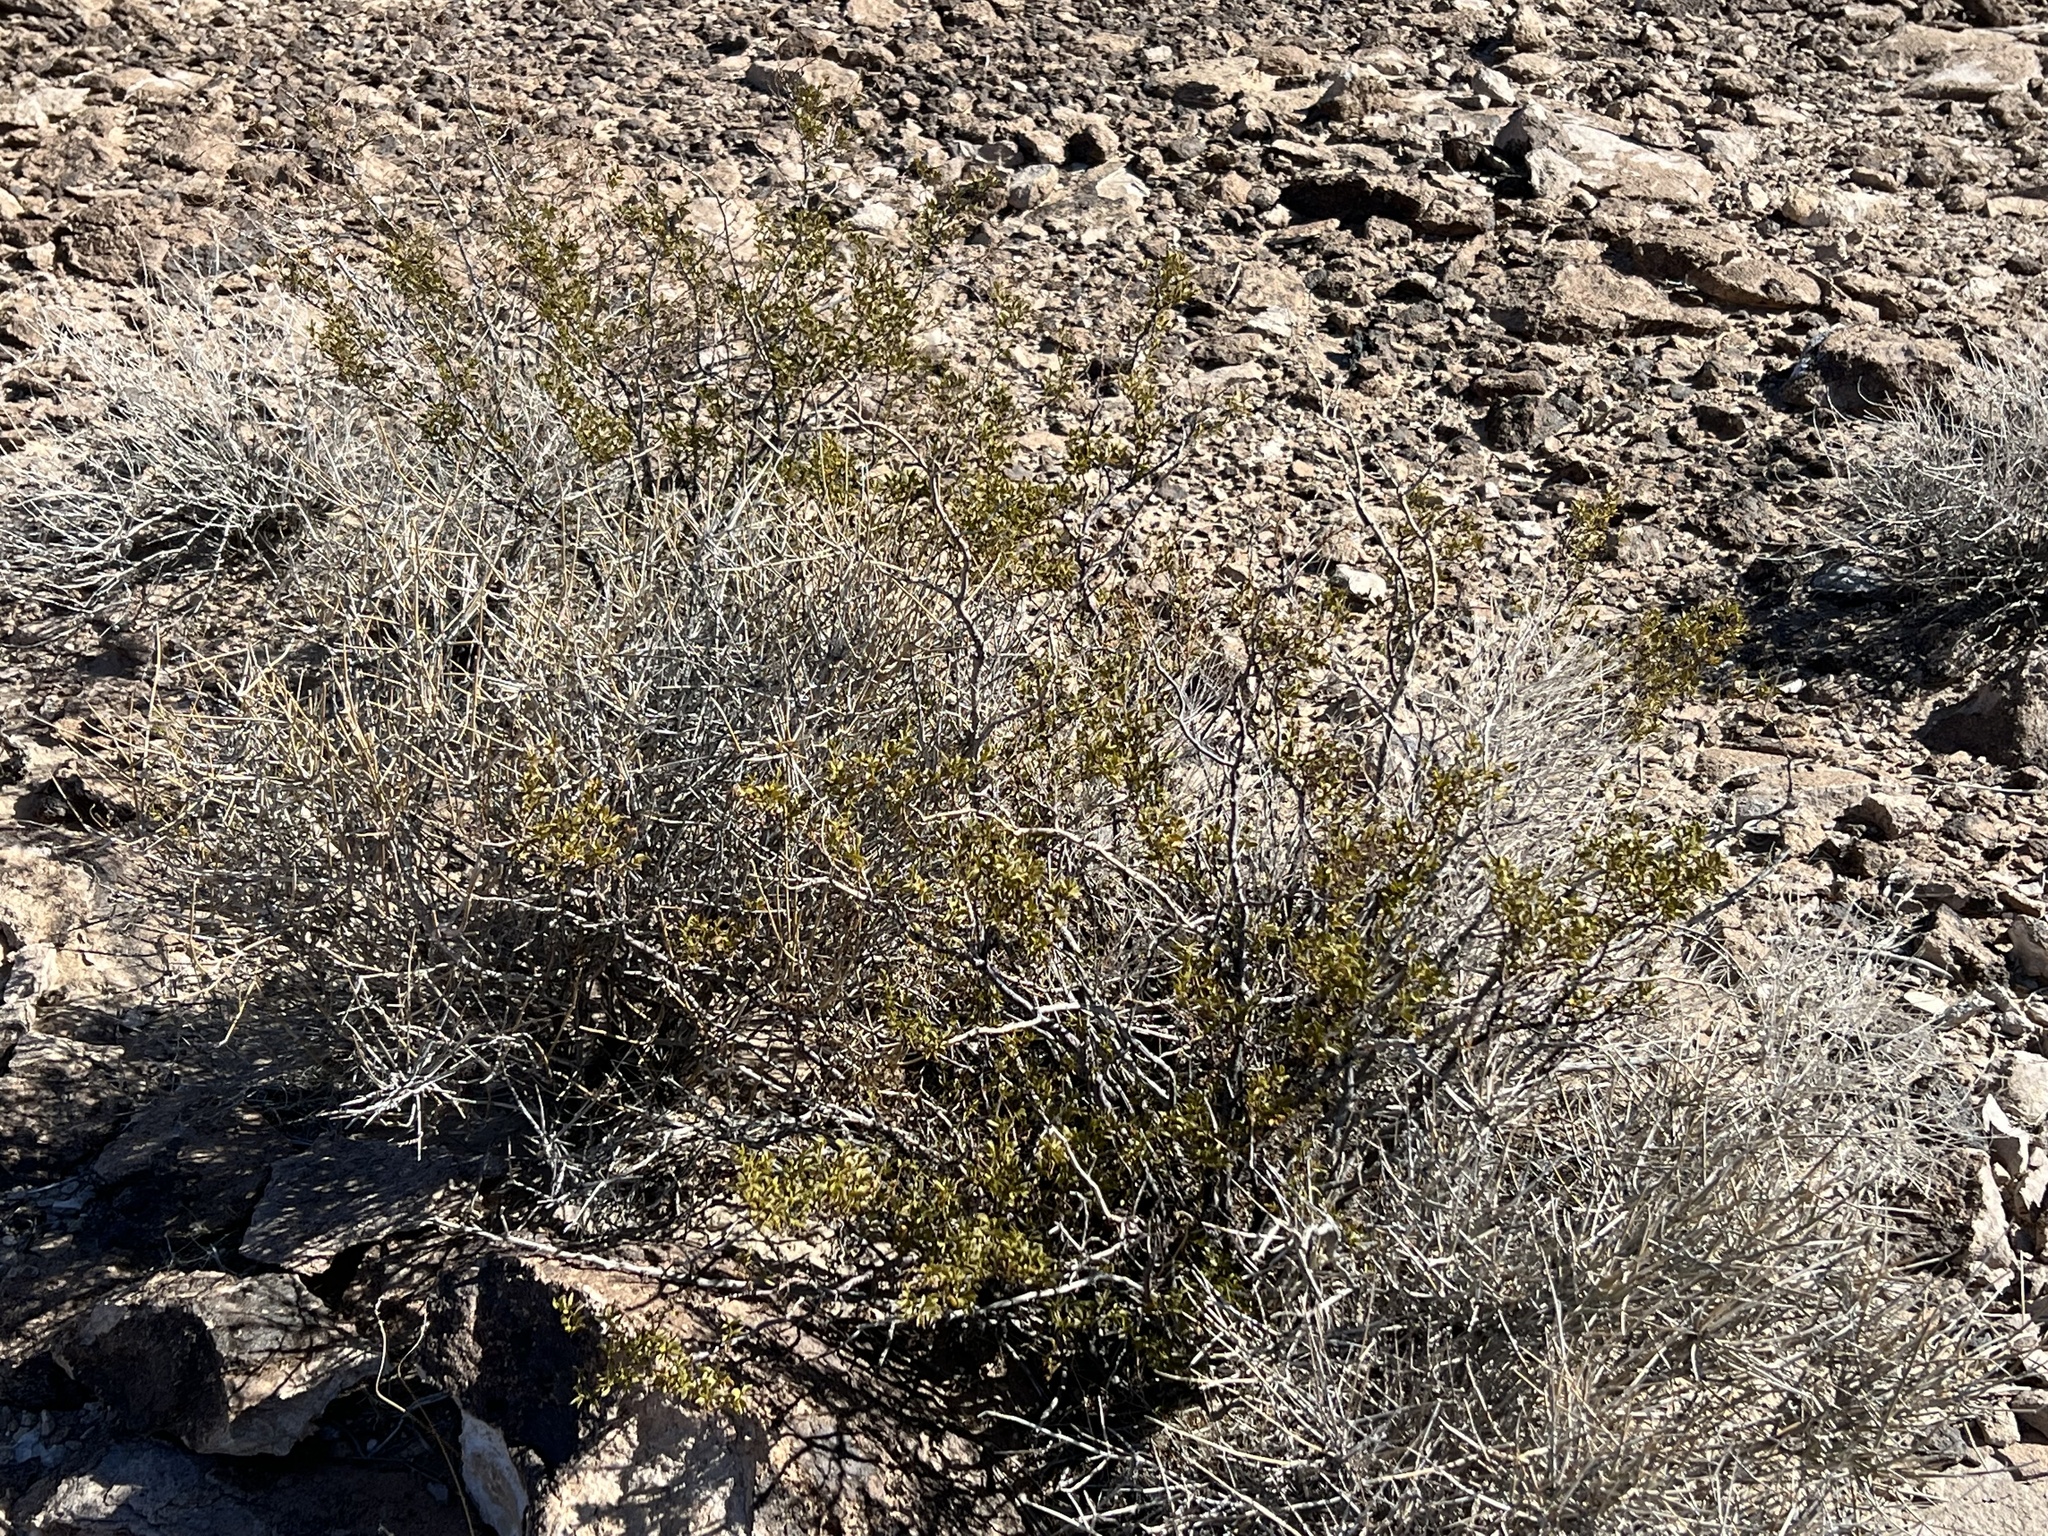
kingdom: Plantae
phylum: Tracheophyta
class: Magnoliopsida
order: Zygophyllales
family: Zygophyllaceae
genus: Larrea
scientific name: Larrea tridentata
